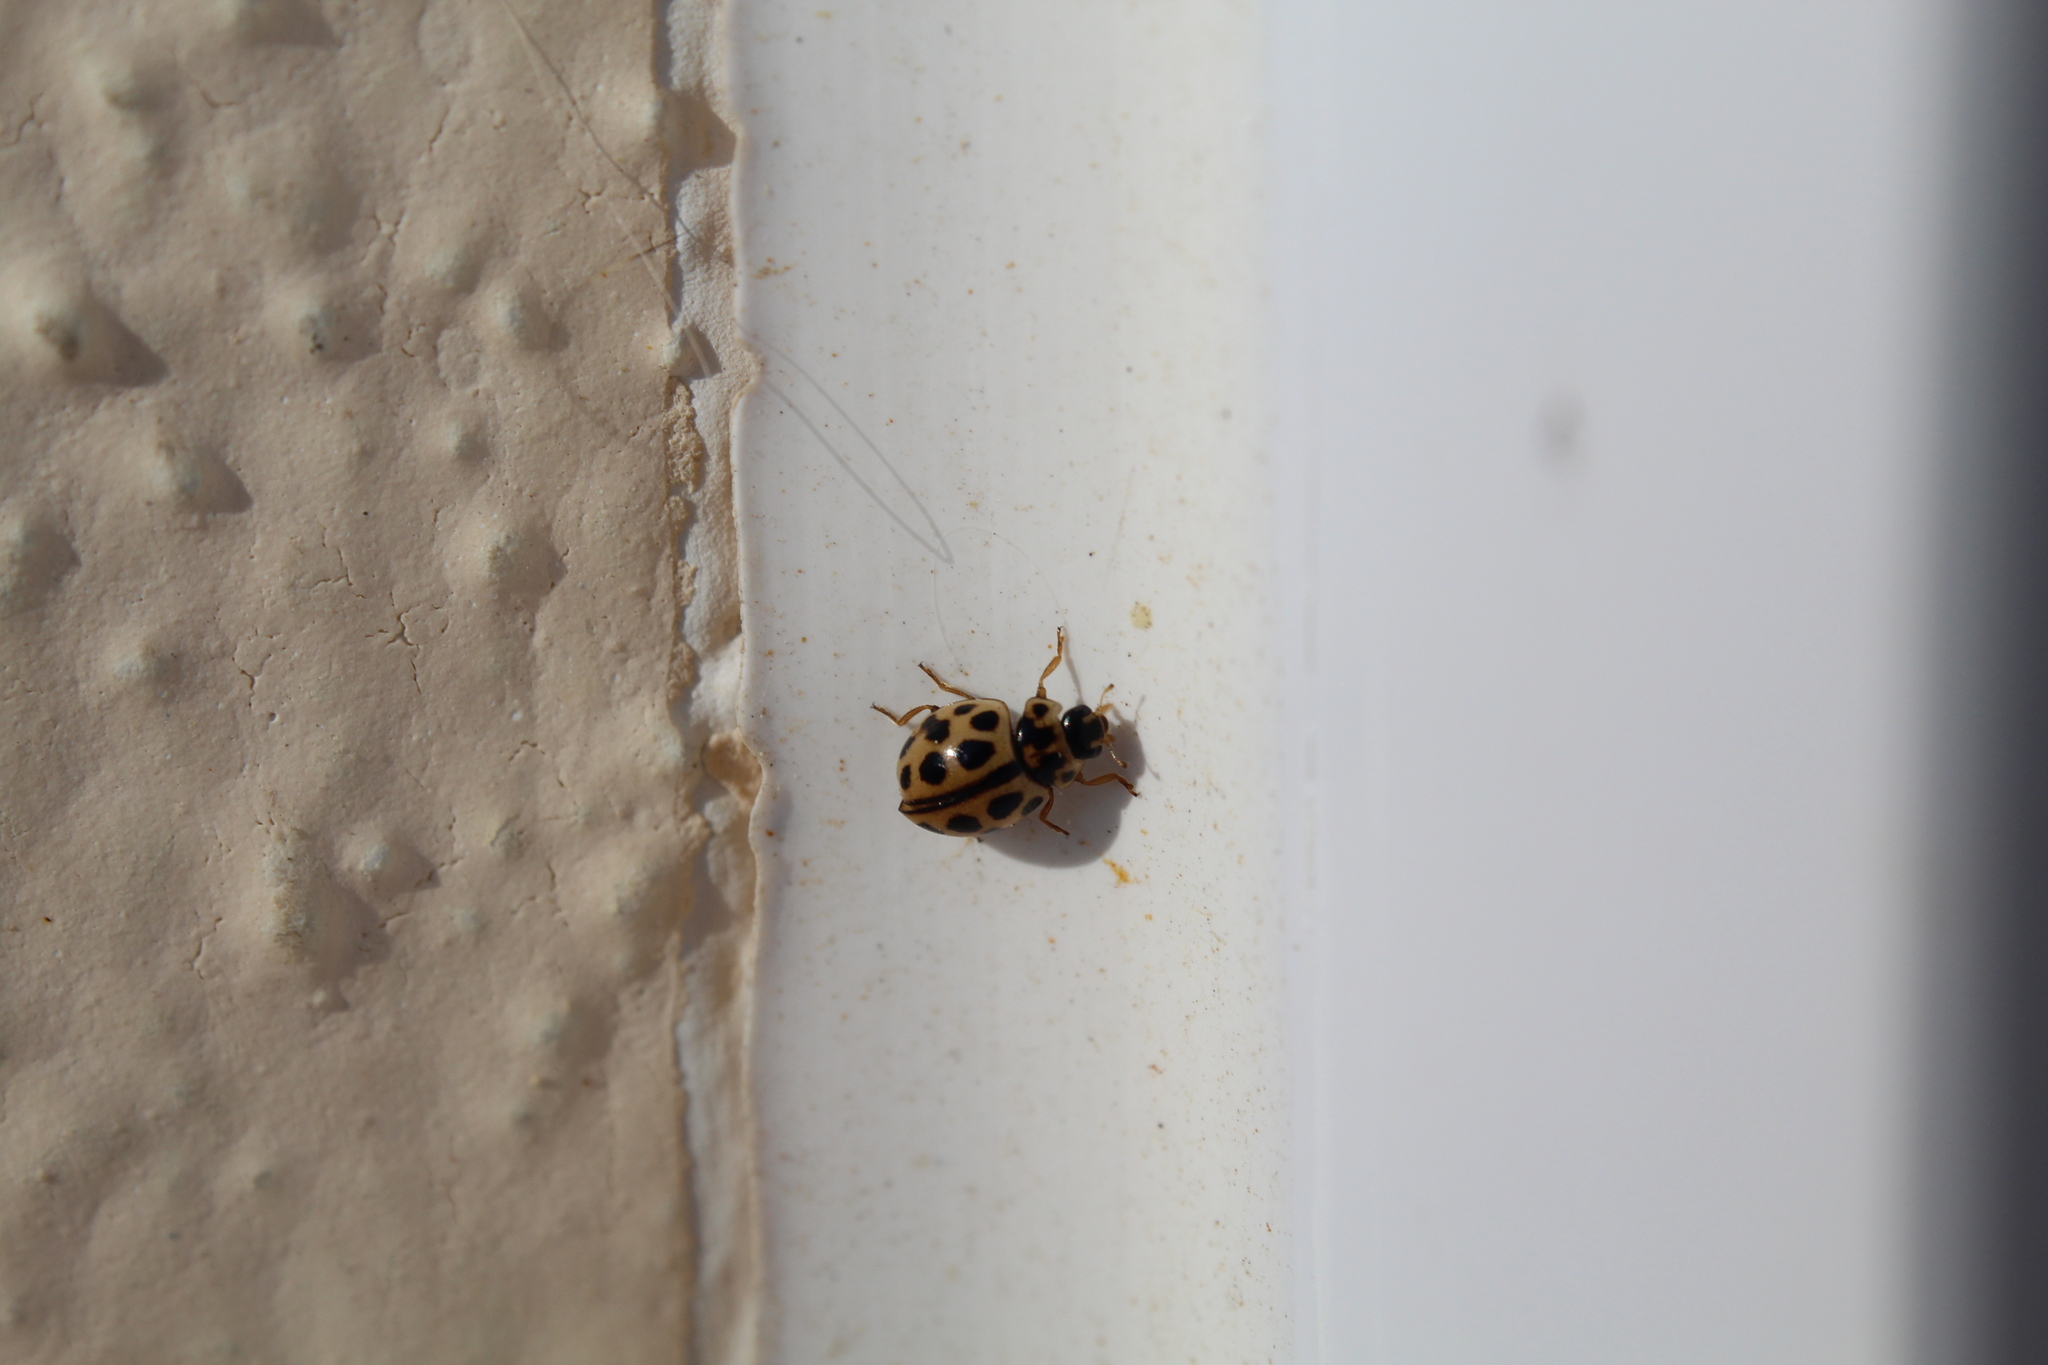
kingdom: Animalia
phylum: Arthropoda
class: Insecta
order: Coleoptera
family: Coccinellidae
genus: Tytthaspis
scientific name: Tytthaspis sedecimpunctata
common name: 16-spot ladybird
